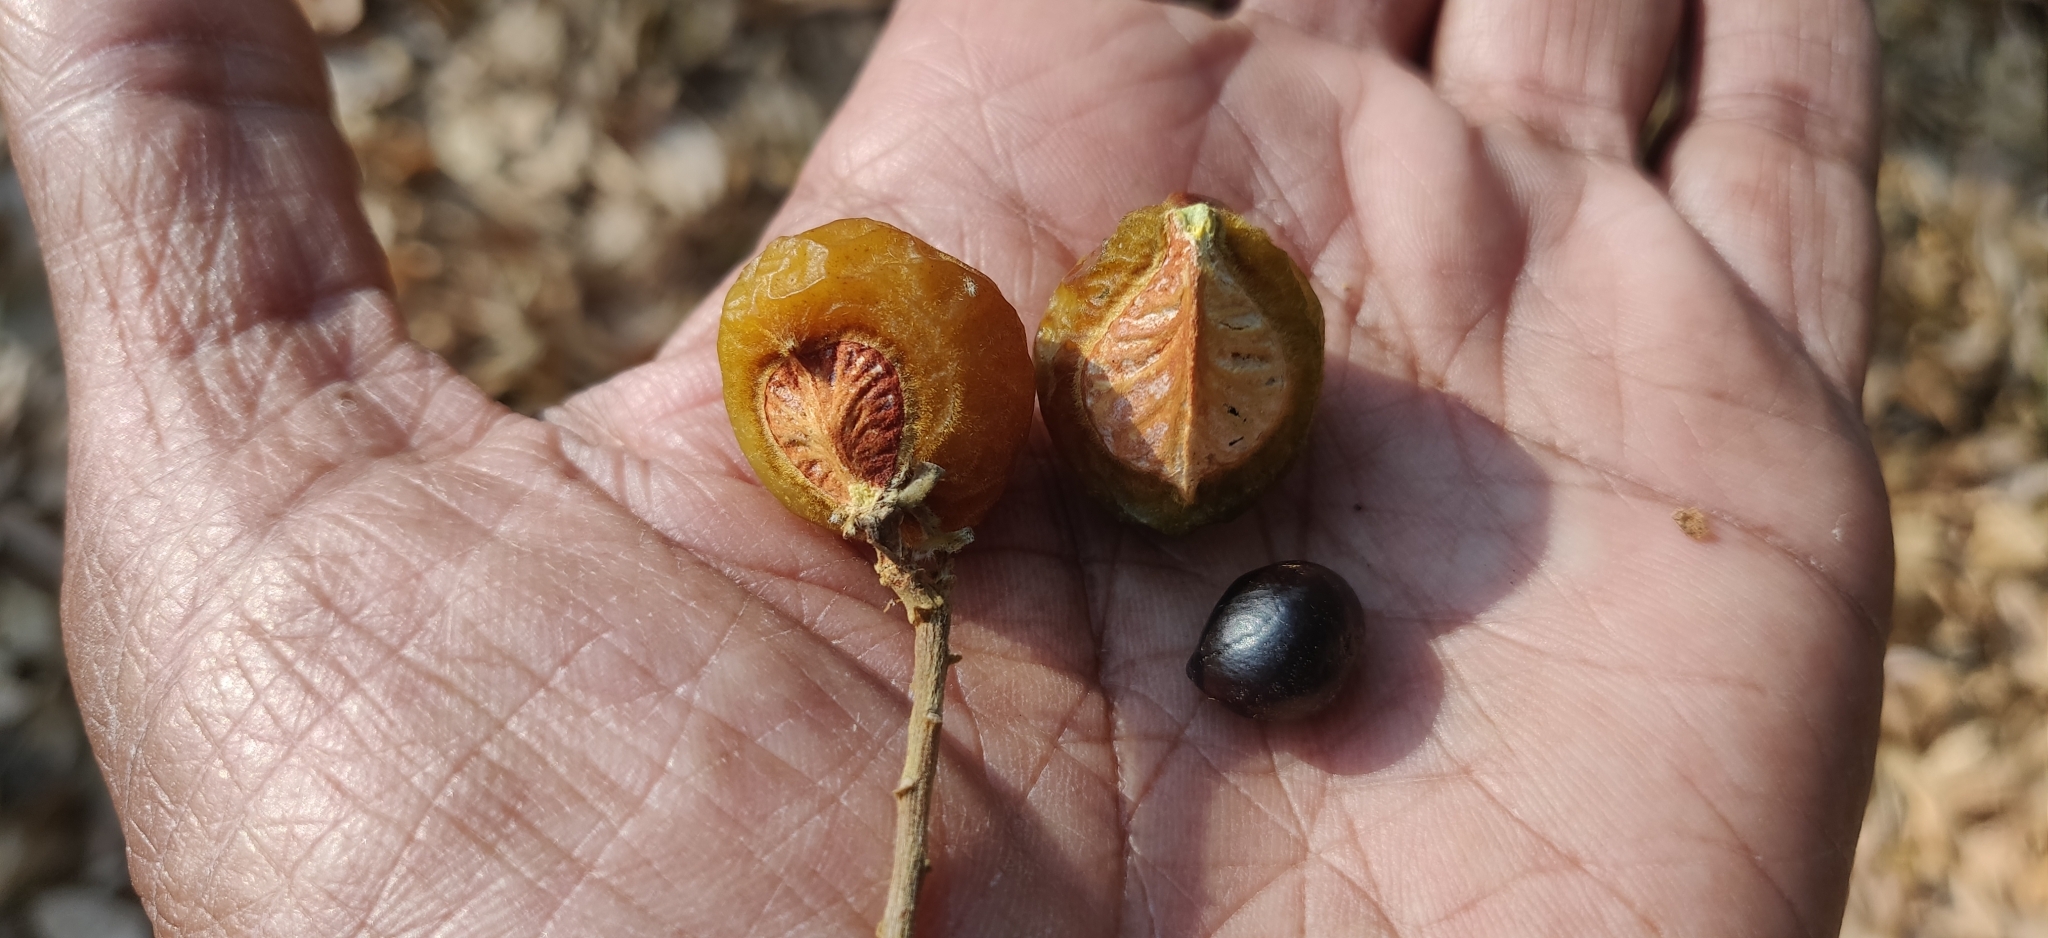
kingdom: Plantae
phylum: Tracheophyta
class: Magnoliopsida
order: Sapindales
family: Sapindaceae
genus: Sapindus
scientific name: Sapindus trifoliatus
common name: Three-leaf soapberry
